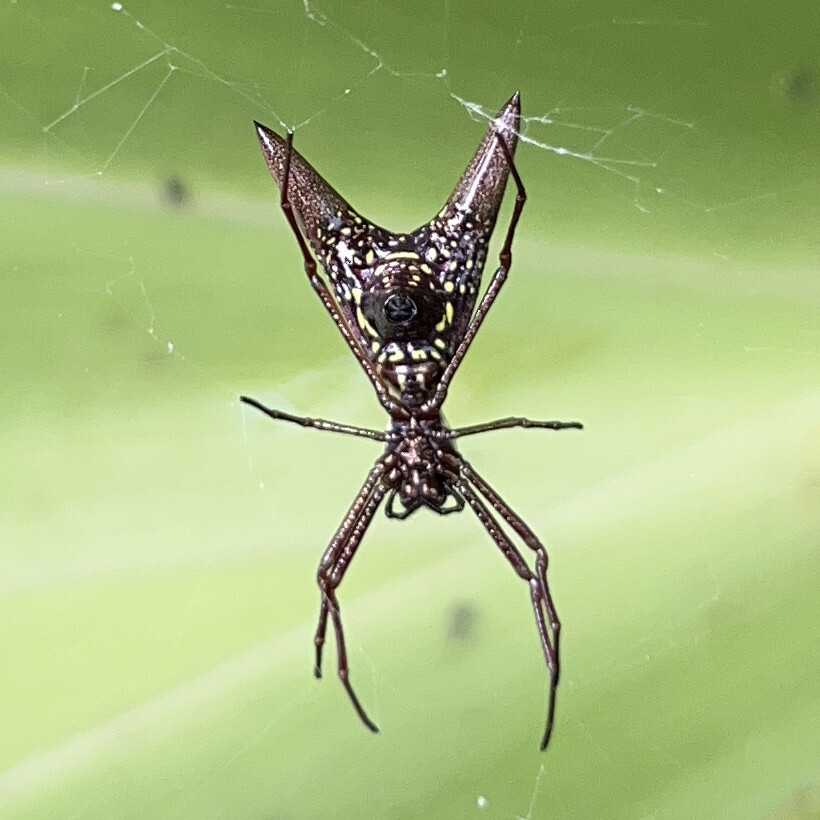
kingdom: Animalia
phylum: Arthropoda
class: Arachnida
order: Araneae
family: Araneidae
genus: Micrathena
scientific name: Micrathena sexspinosa
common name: Orb weavers
